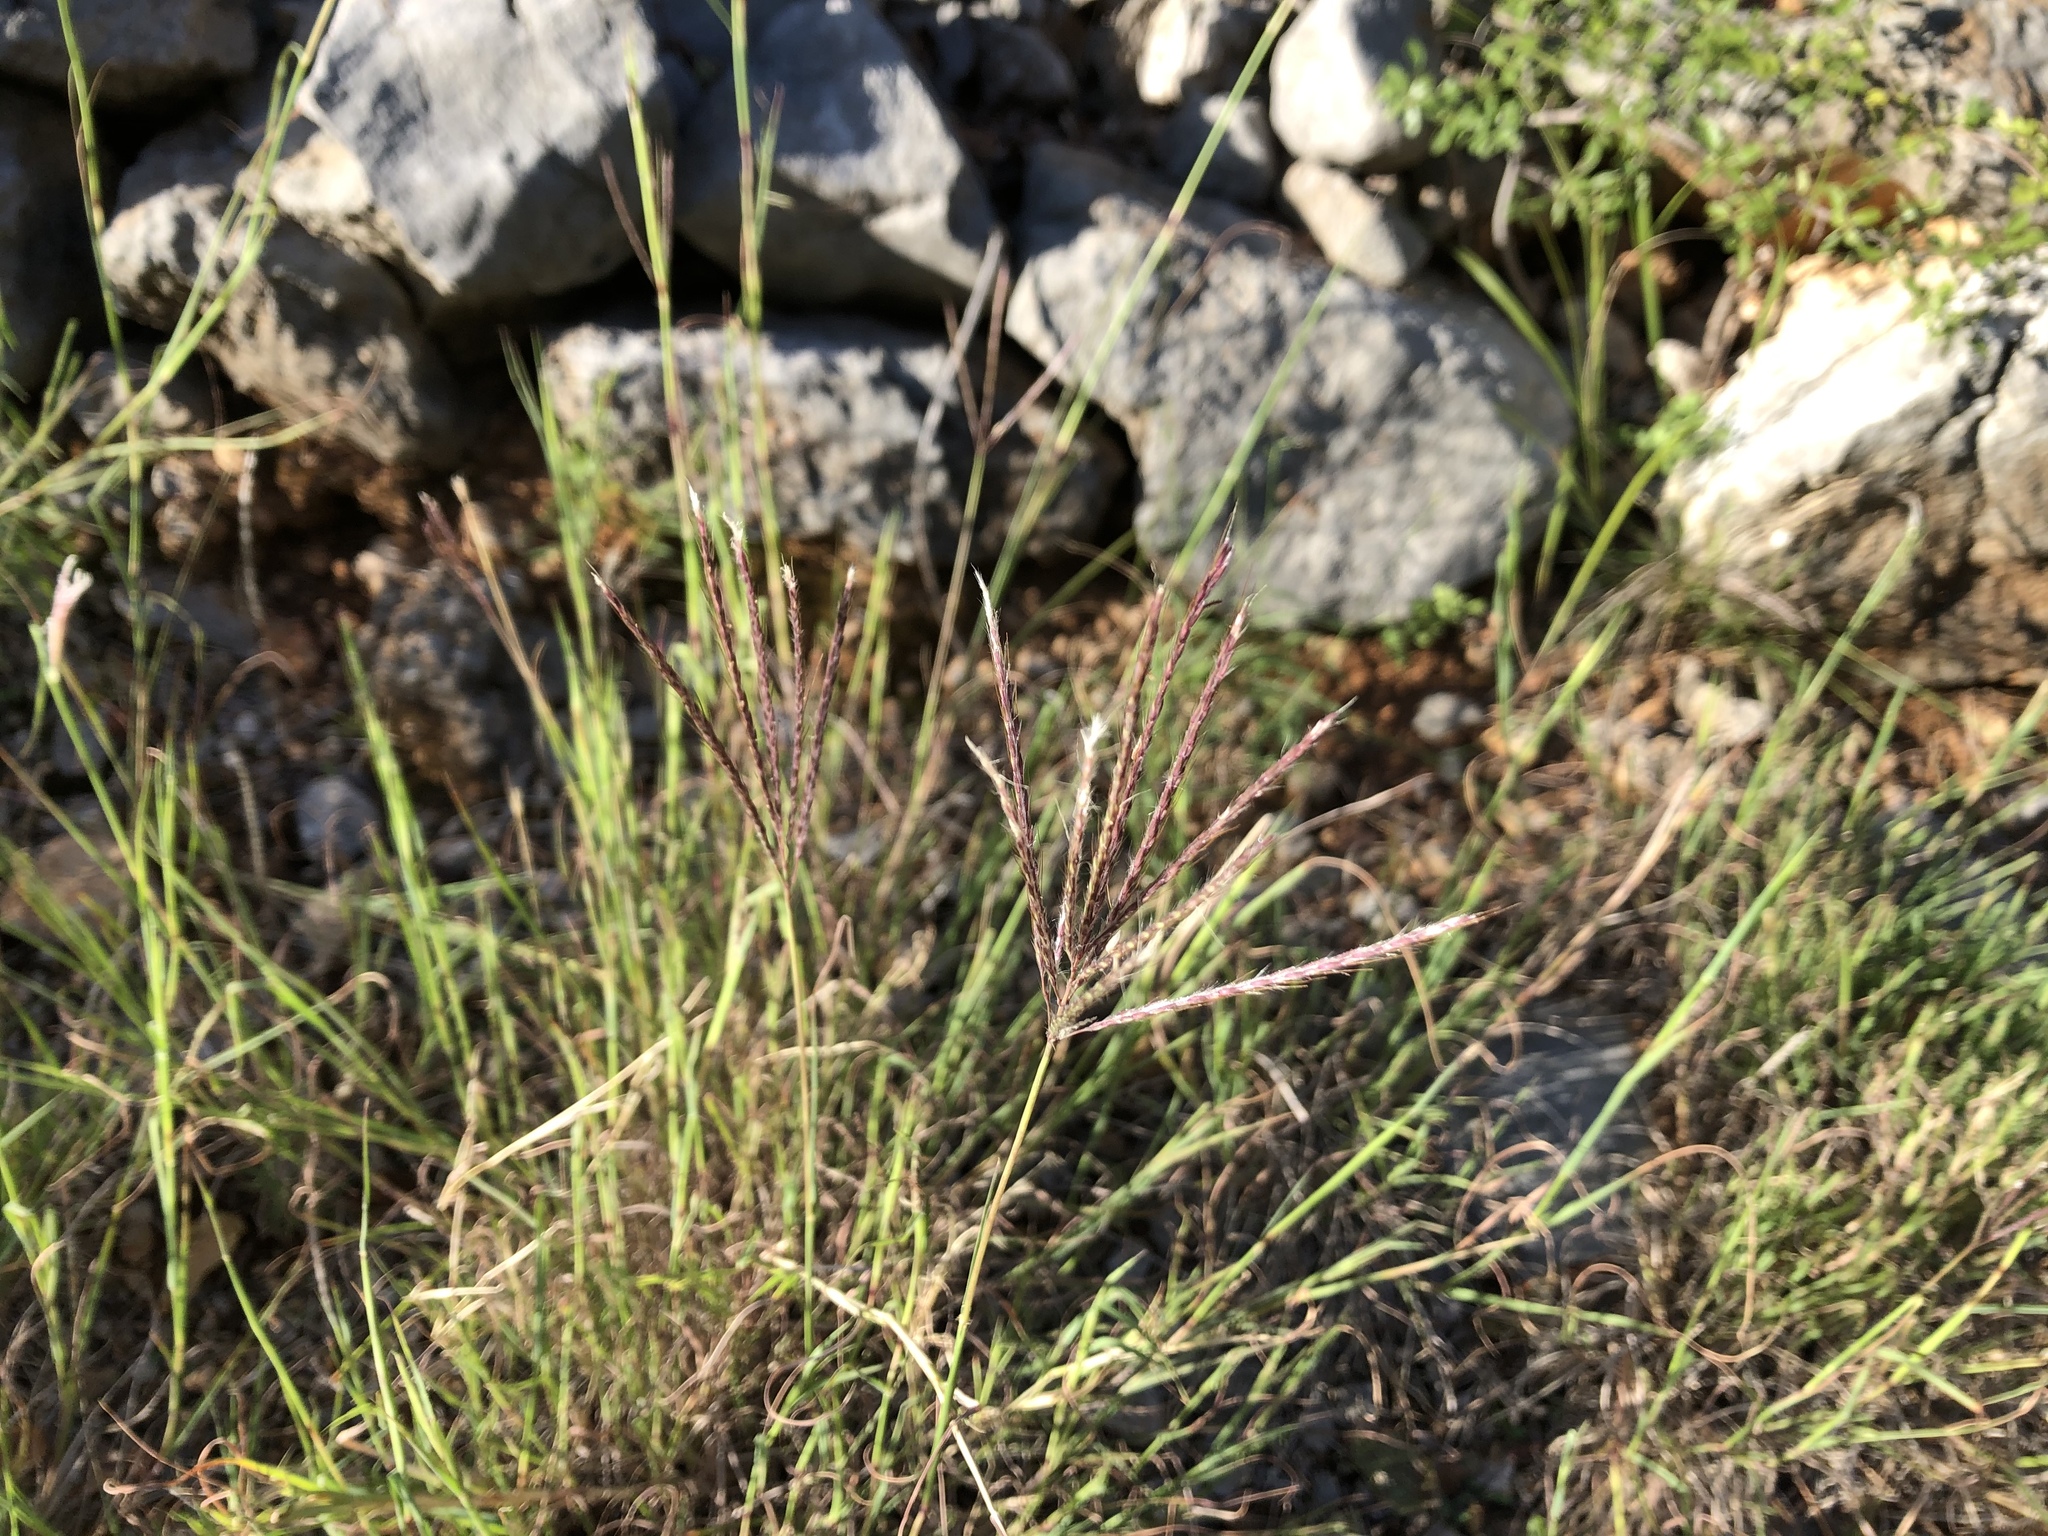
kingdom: Plantae
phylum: Tracheophyta
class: Liliopsida
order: Poales
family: Poaceae
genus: Bothriochloa
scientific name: Bothriochloa ischaemum
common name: Yellow bluestem
